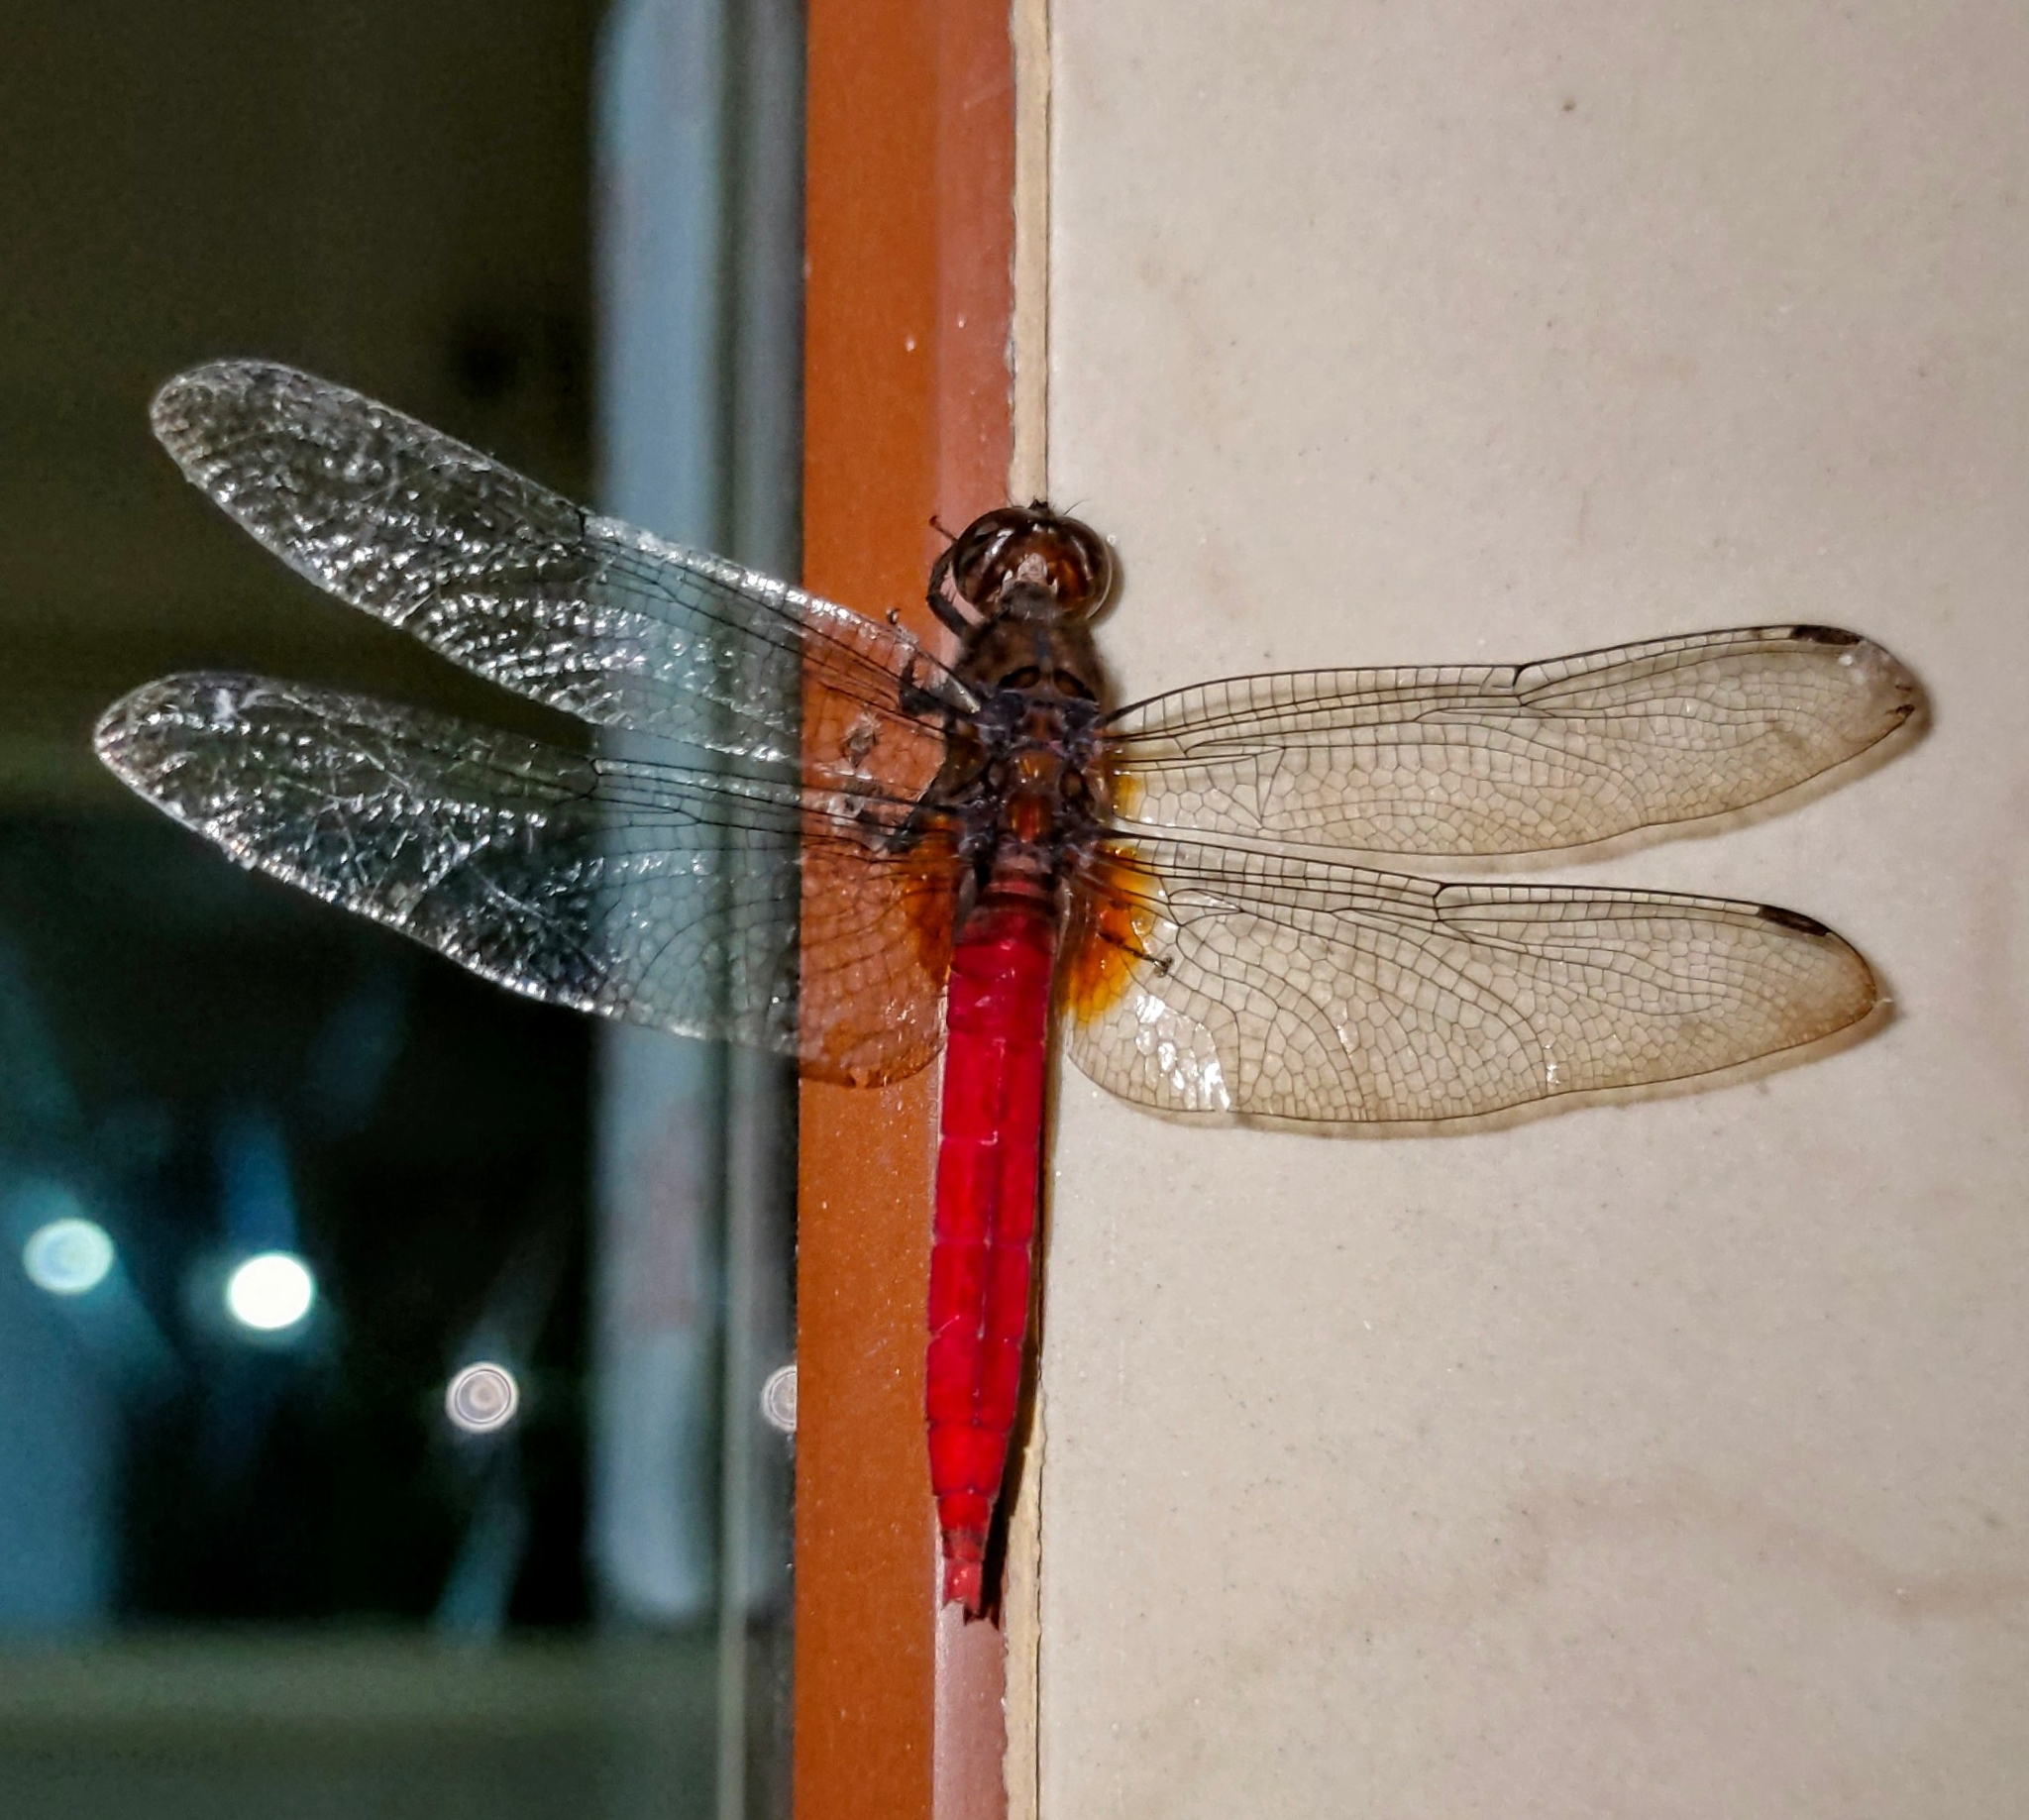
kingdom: Animalia
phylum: Arthropoda
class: Insecta
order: Odonata
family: Libellulidae
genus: Orthetrum
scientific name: Orthetrum chrysis
